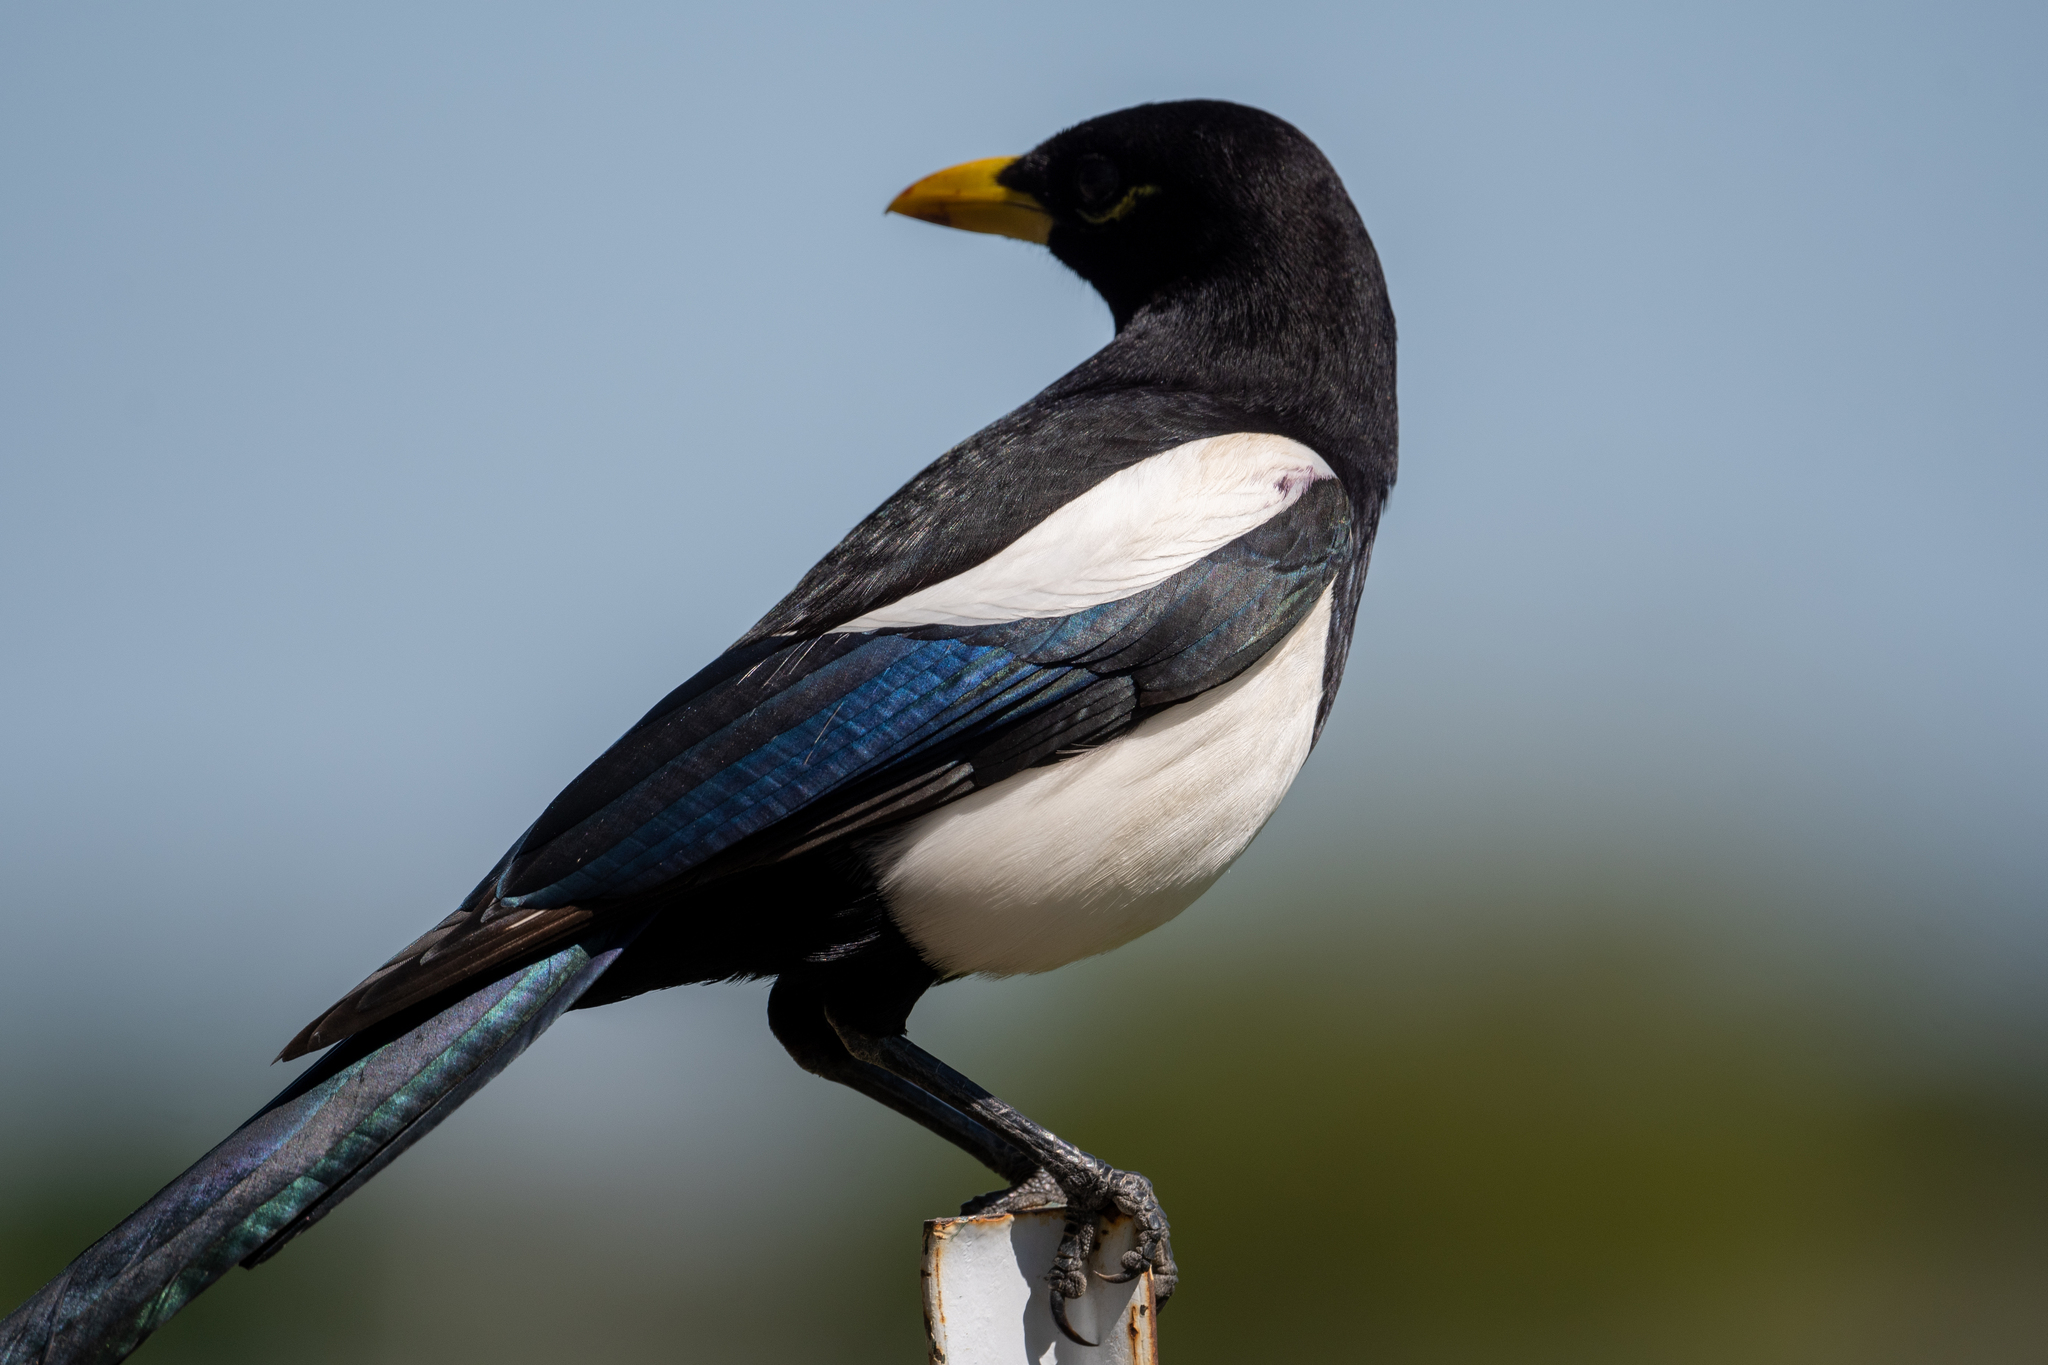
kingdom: Animalia
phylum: Chordata
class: Aves
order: Passeriformes
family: Corvidae
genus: Pica
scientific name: Pica nuttalli
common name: Yellow-billed magpie
